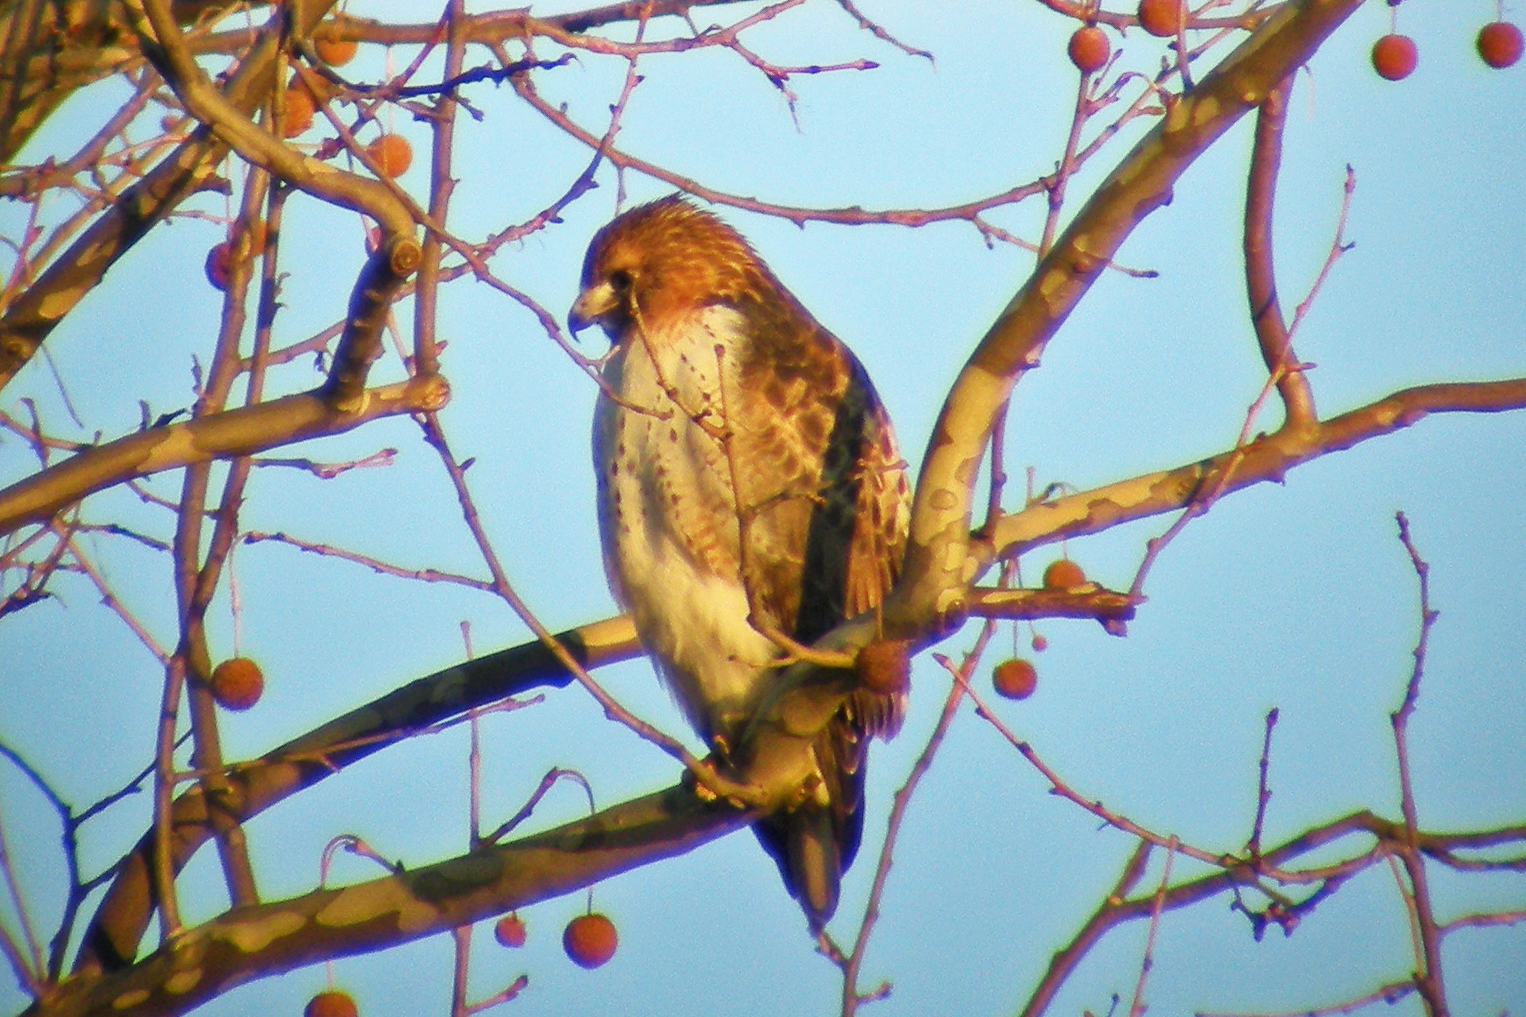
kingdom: Animalia
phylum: Chordata
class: Aves
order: Accipitriformes
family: Accipitridae
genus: Buteo
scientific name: Buteo jamaicensis
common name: Red-tailed hawk
